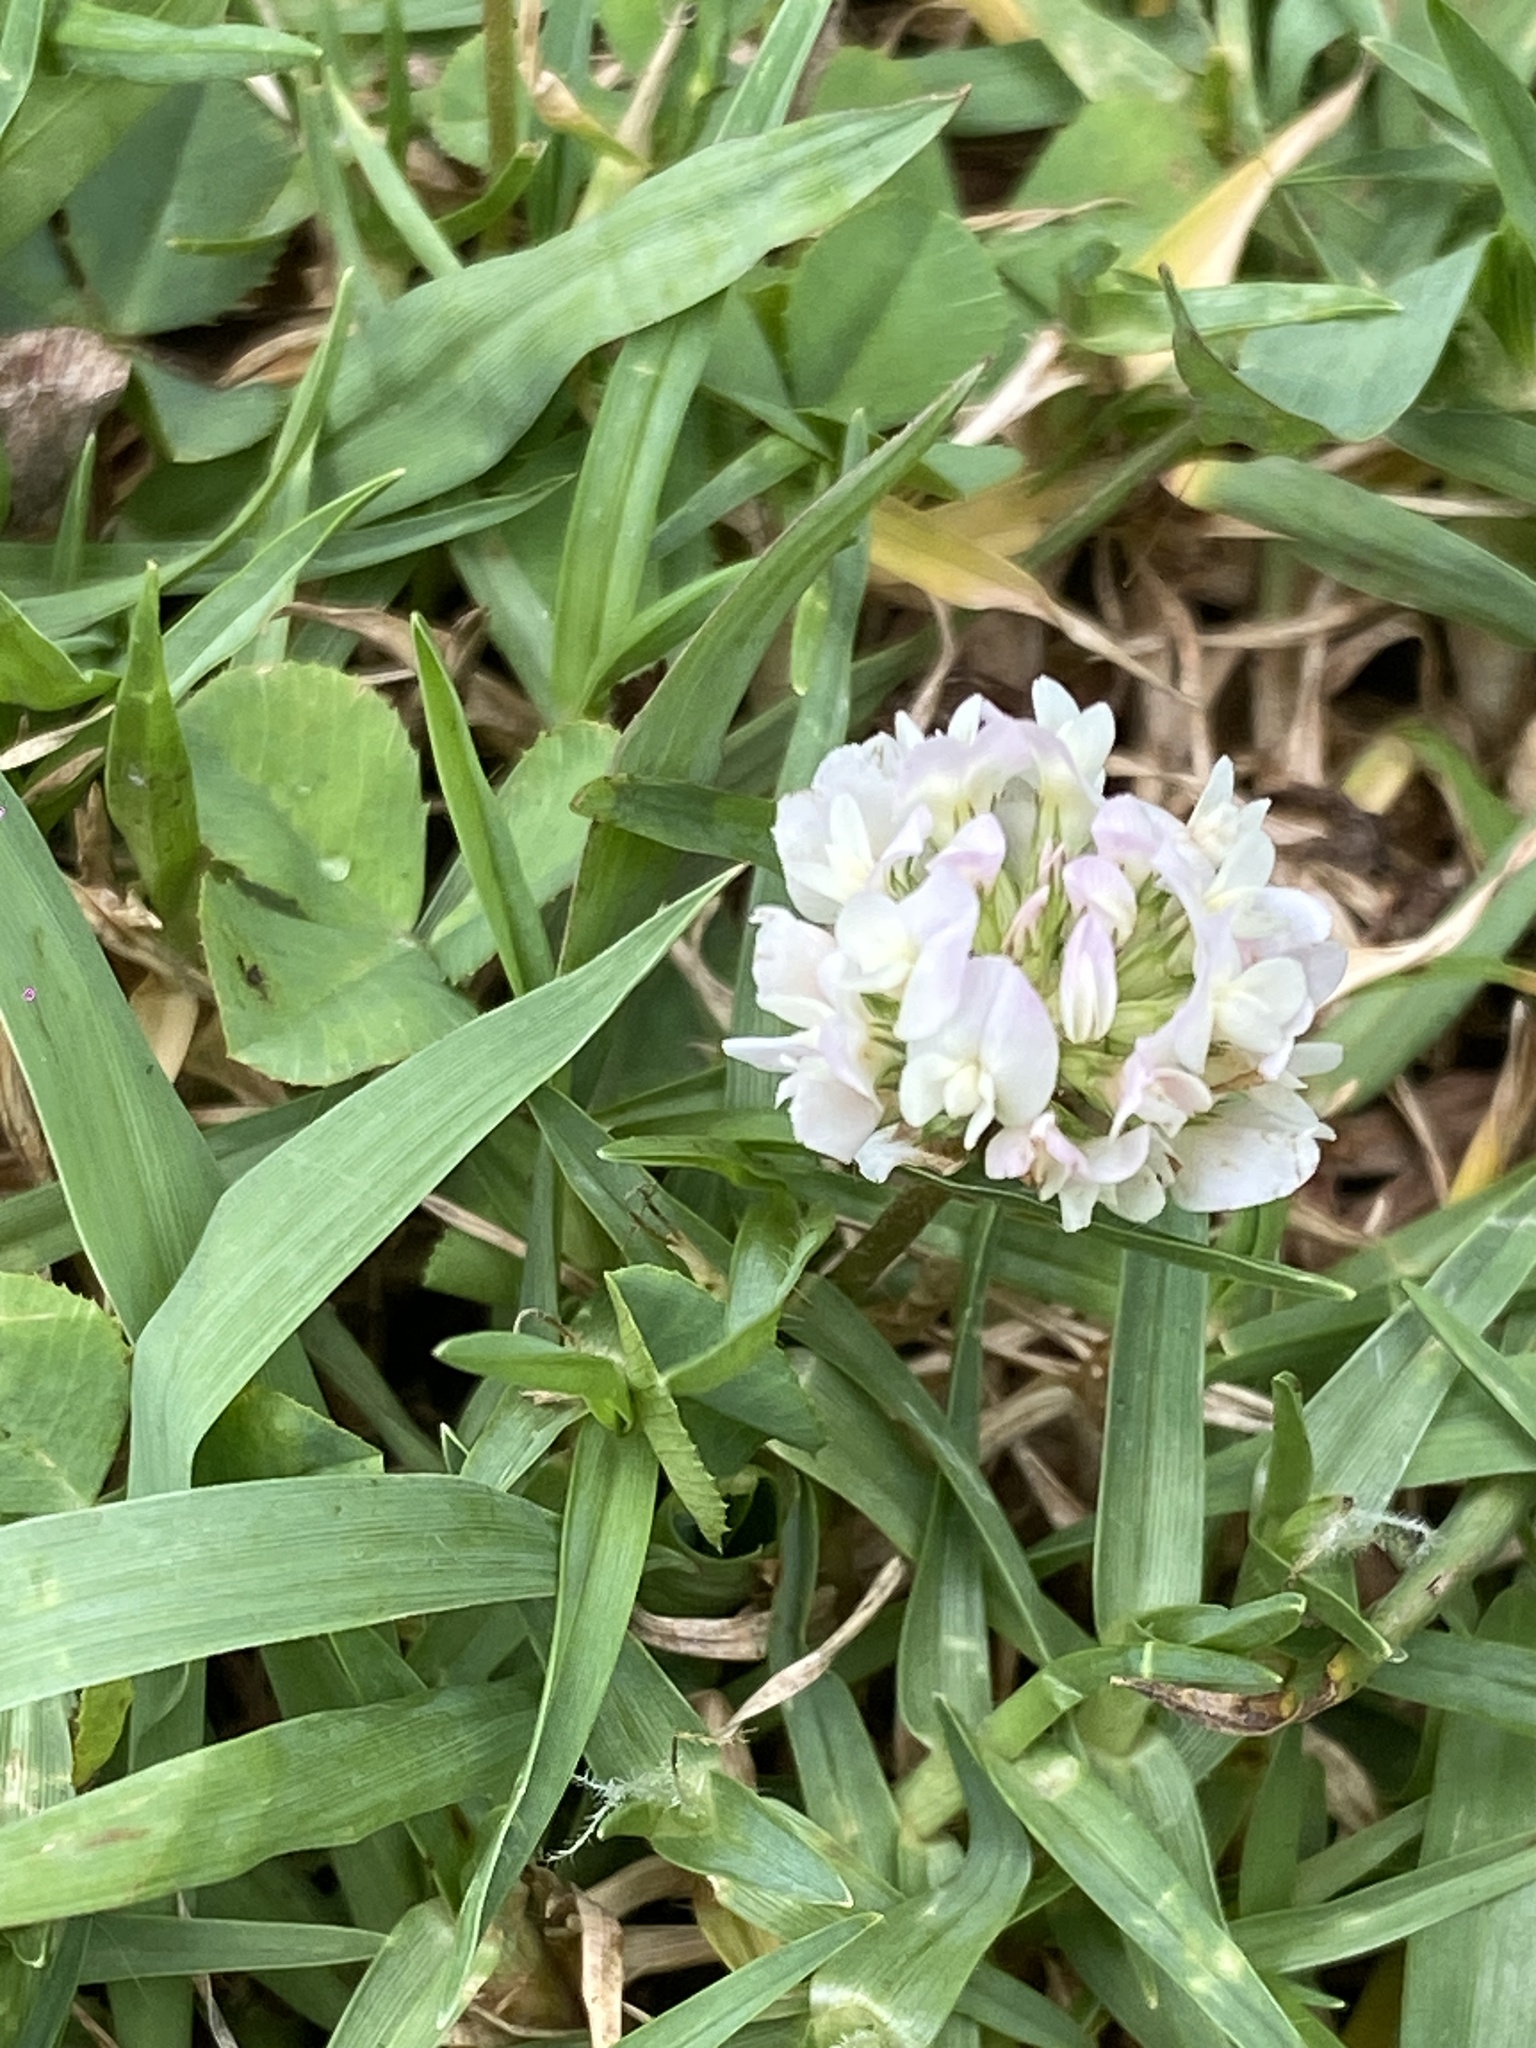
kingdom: Plantae
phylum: Tracheophyta
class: Magnoliopsida
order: Fabales
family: Fabaceae
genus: Trifolium
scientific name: Trifolium repens
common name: White clover
